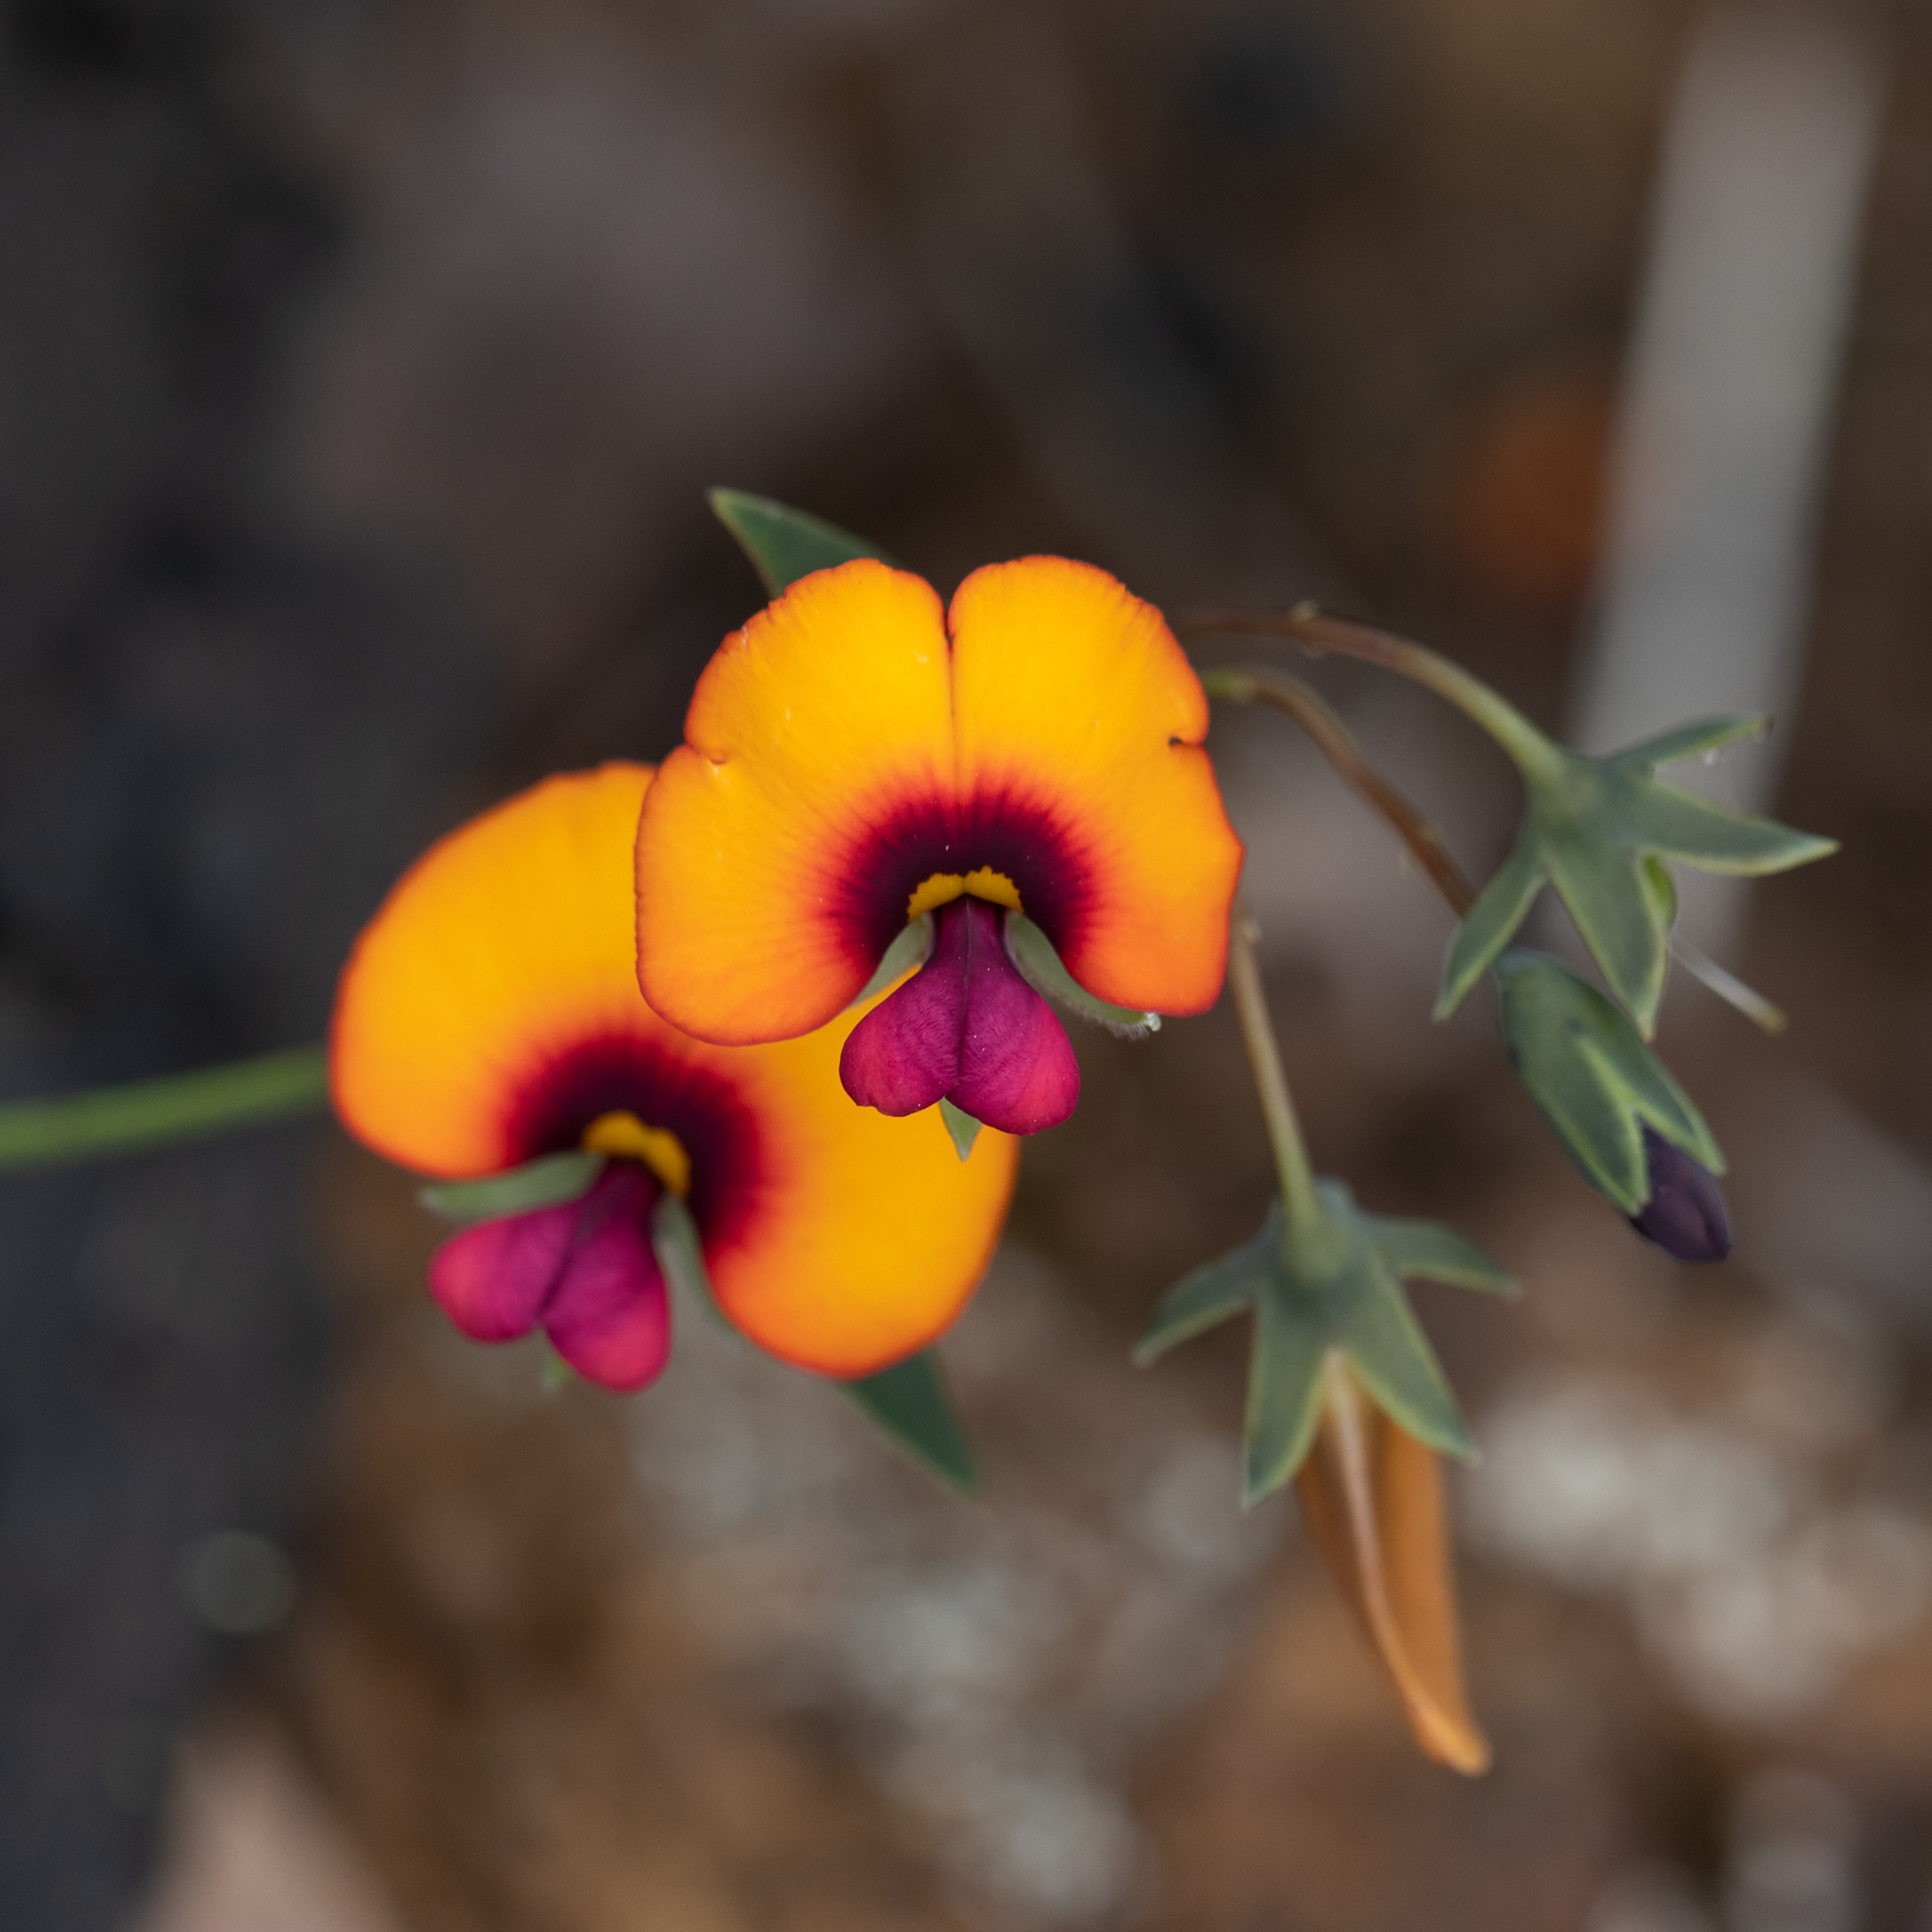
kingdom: Plantae
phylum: Tracheophyta
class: Magnoliopsida
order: Fabales
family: Fabaceae
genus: Gompholobium
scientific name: Gompholobium ovatum
